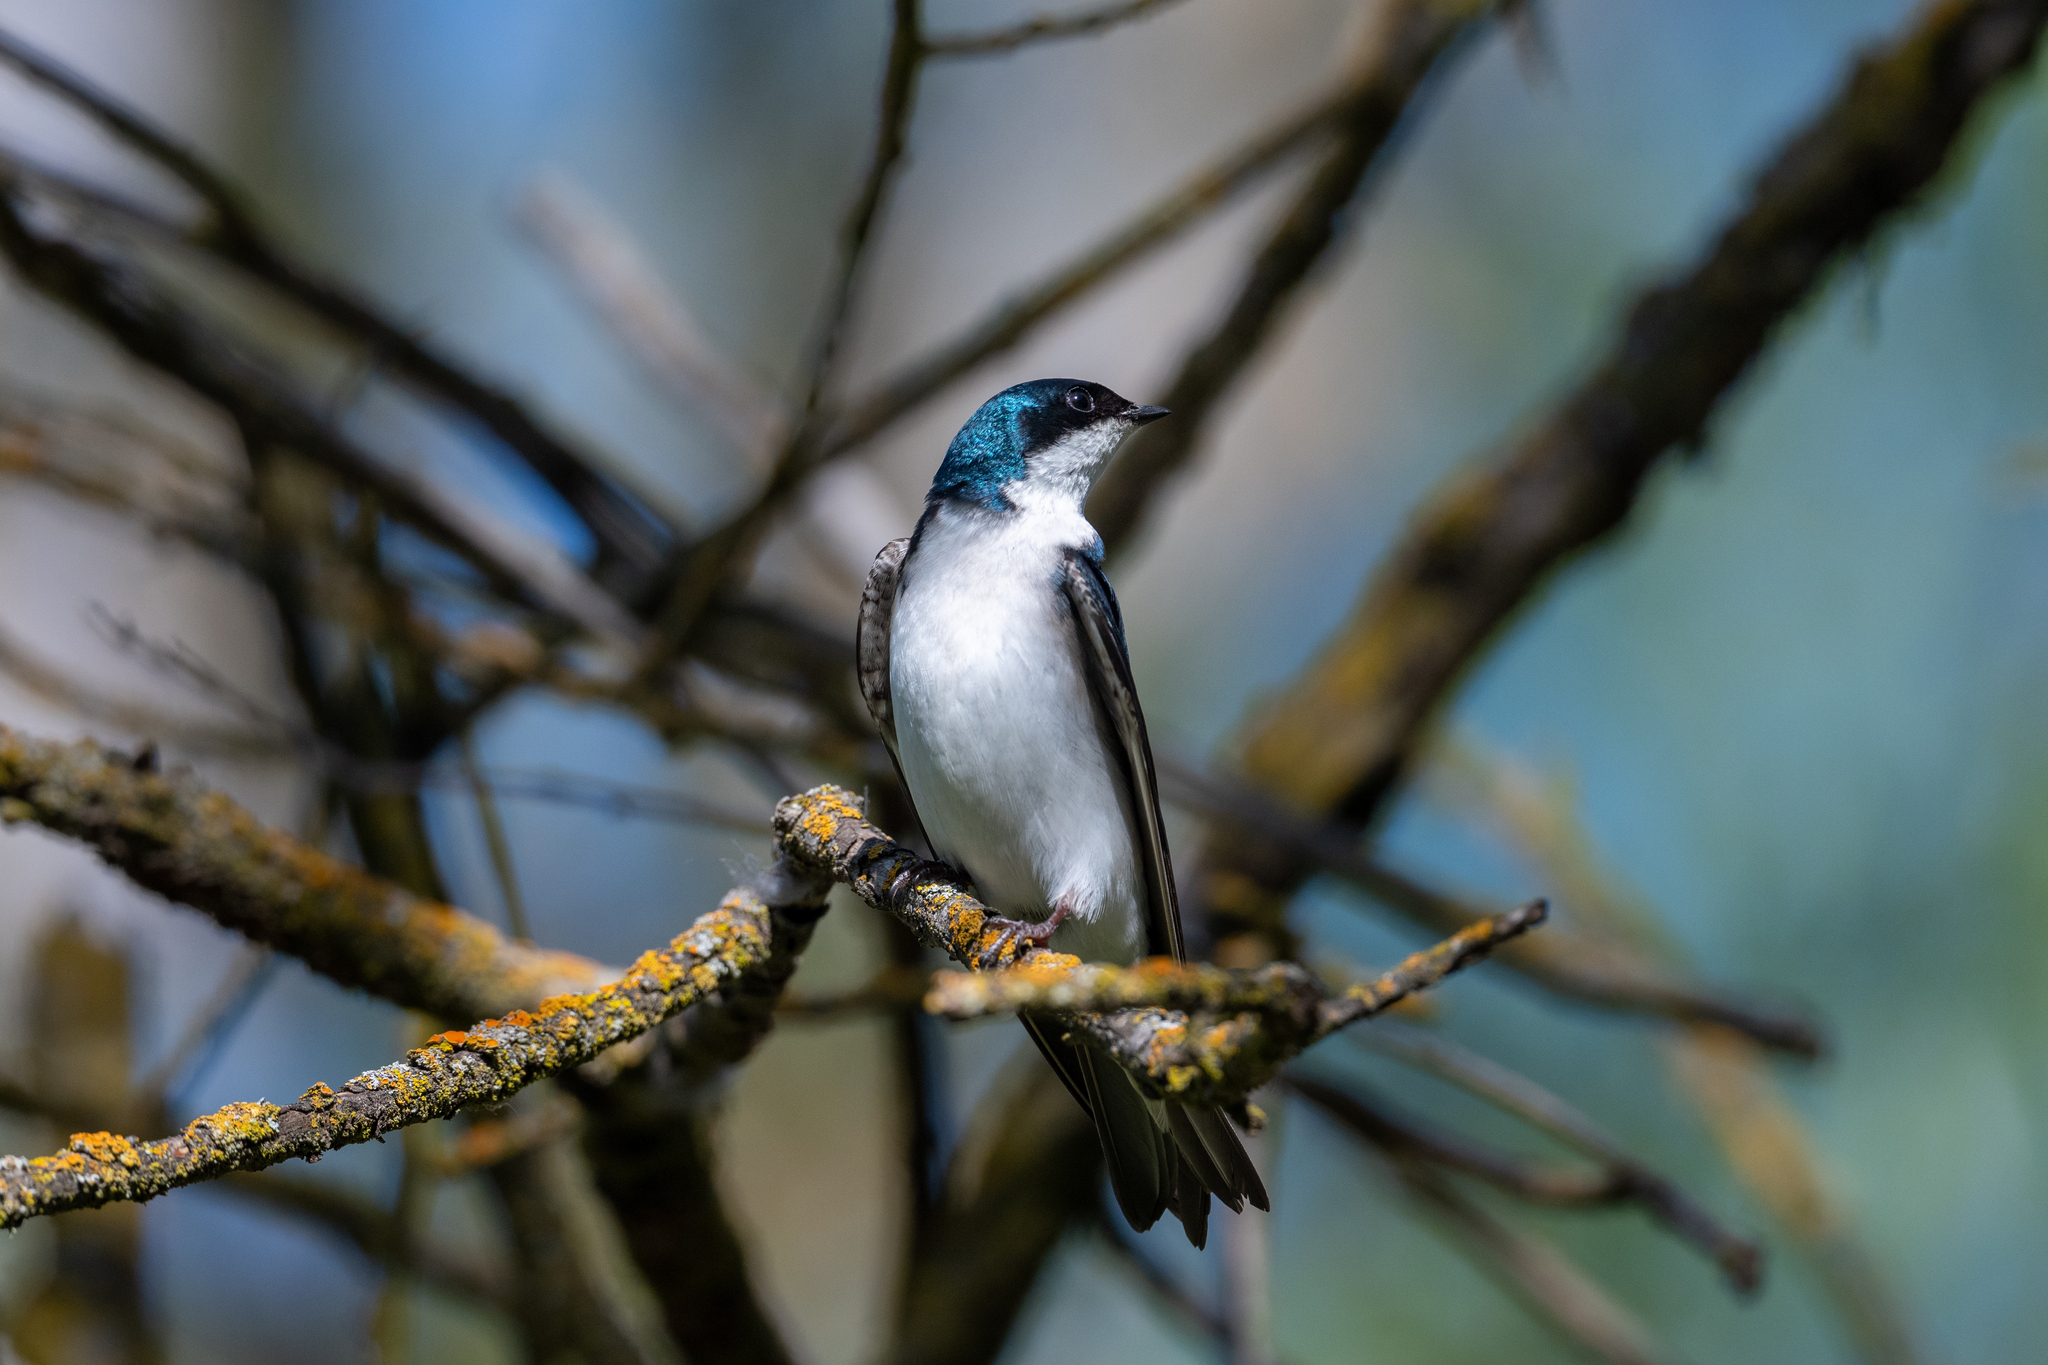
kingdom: Animalia
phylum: Chordata
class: Aves
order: Passeriformes
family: Hirundinidae
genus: Tachycineta
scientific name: Tachycineta bicolor
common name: Tree swallow
